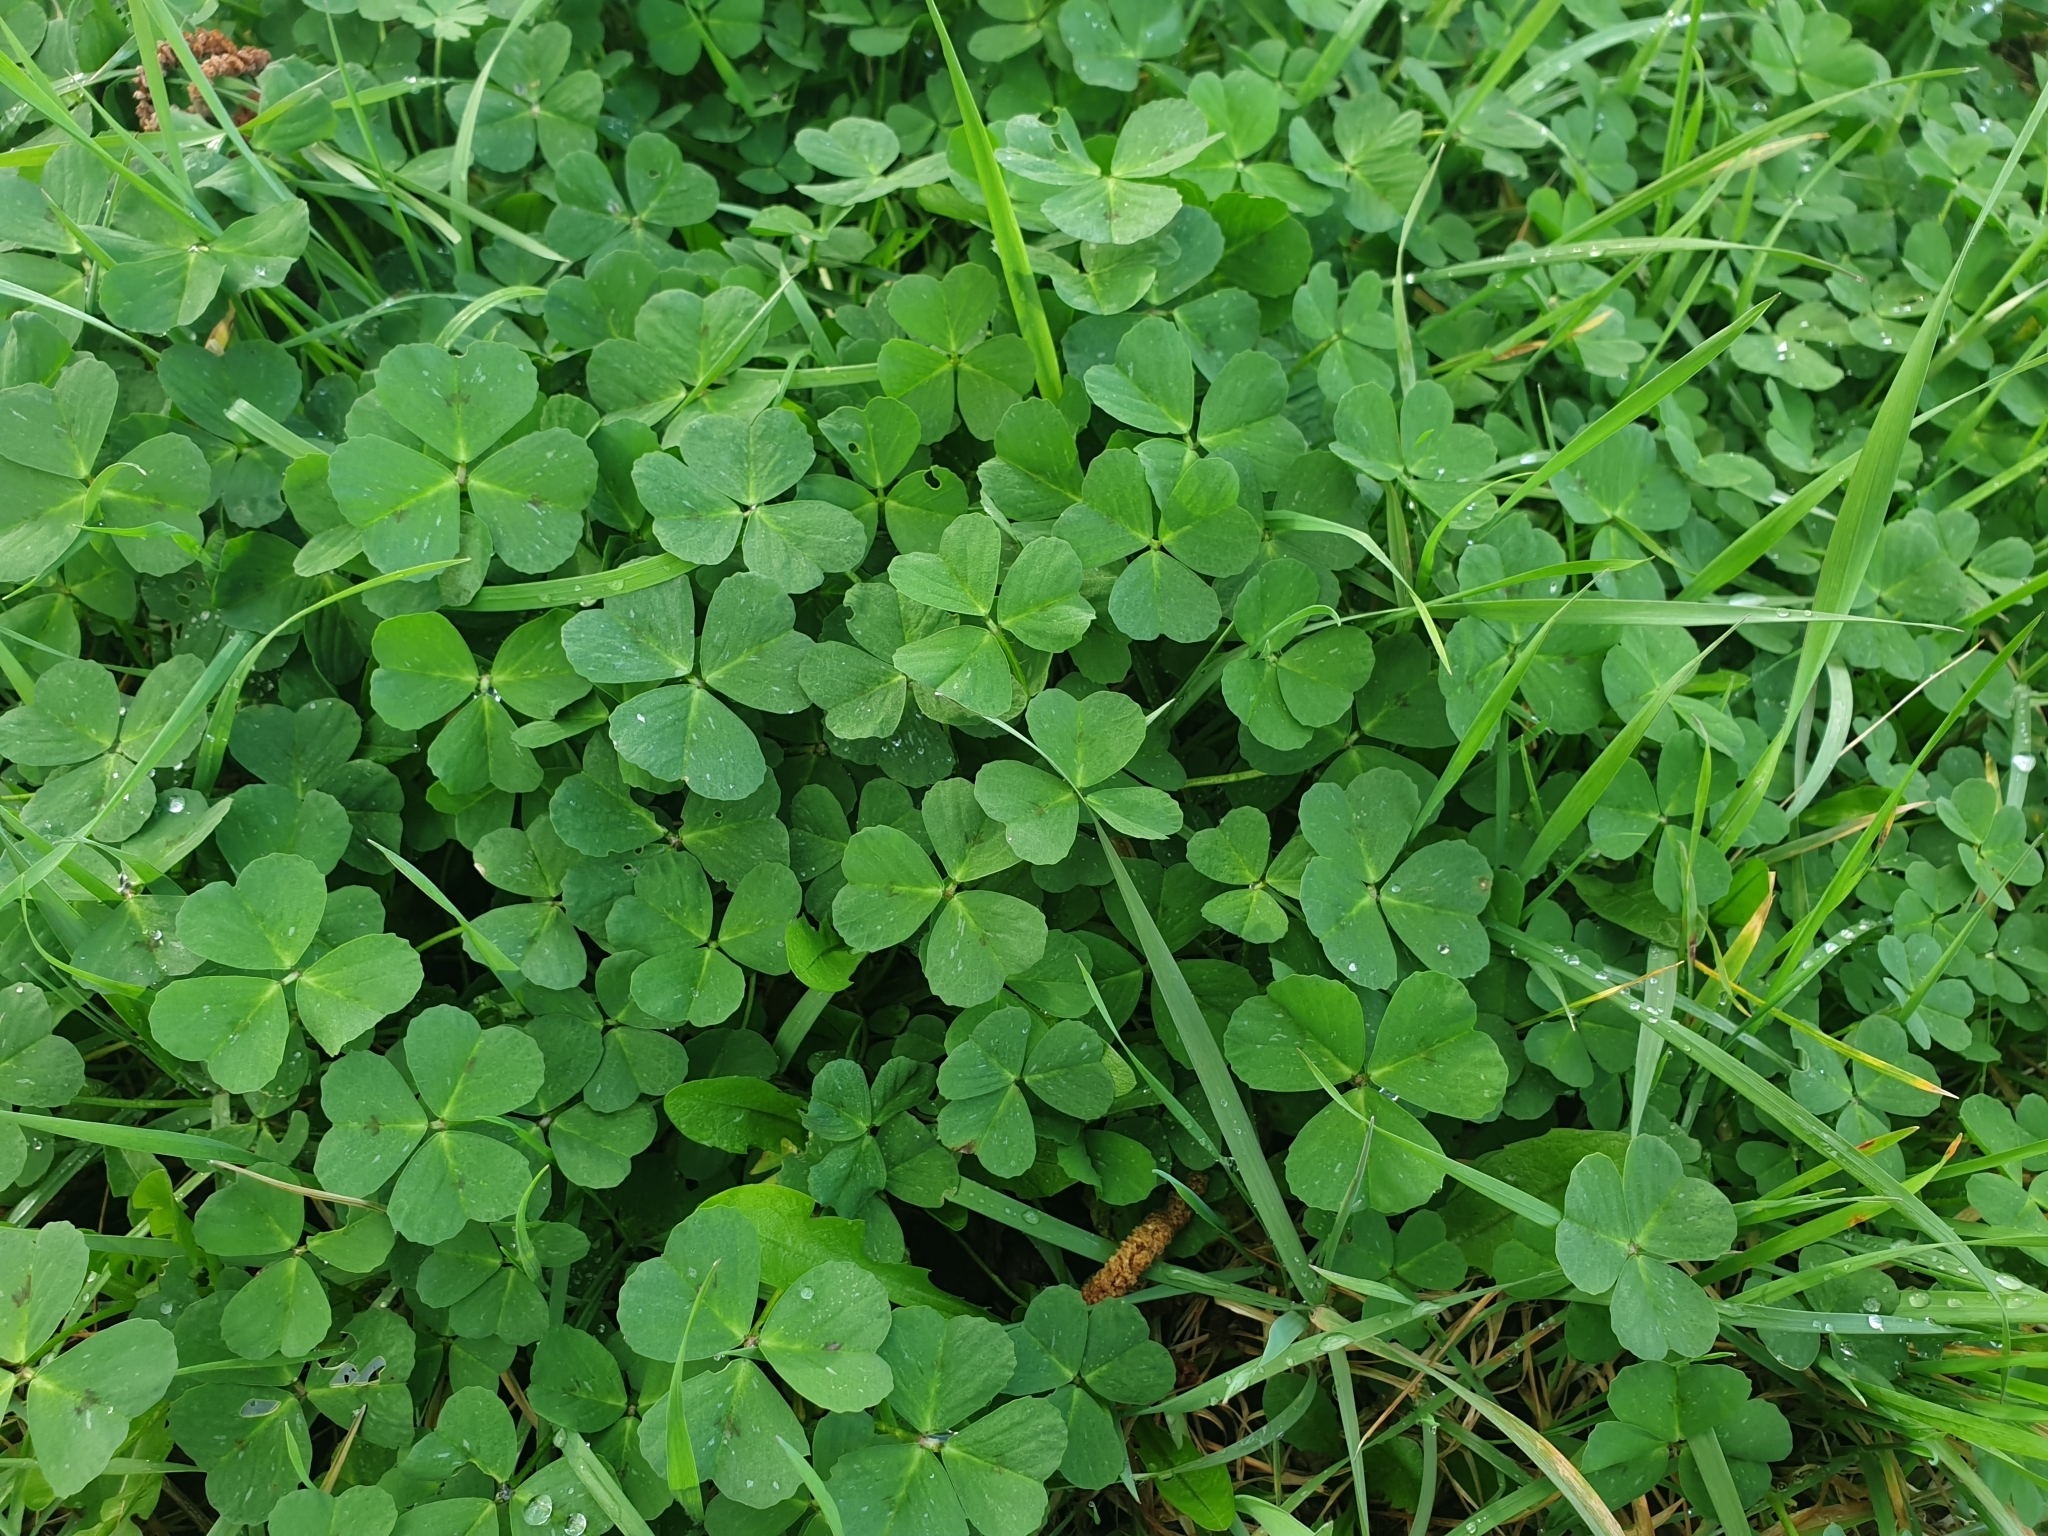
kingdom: Plantae
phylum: Tracheophyta
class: Magnoliopsida
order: Fabales
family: Fabaceae
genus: Medicago
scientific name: Medicago arabica
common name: Spotted medick
